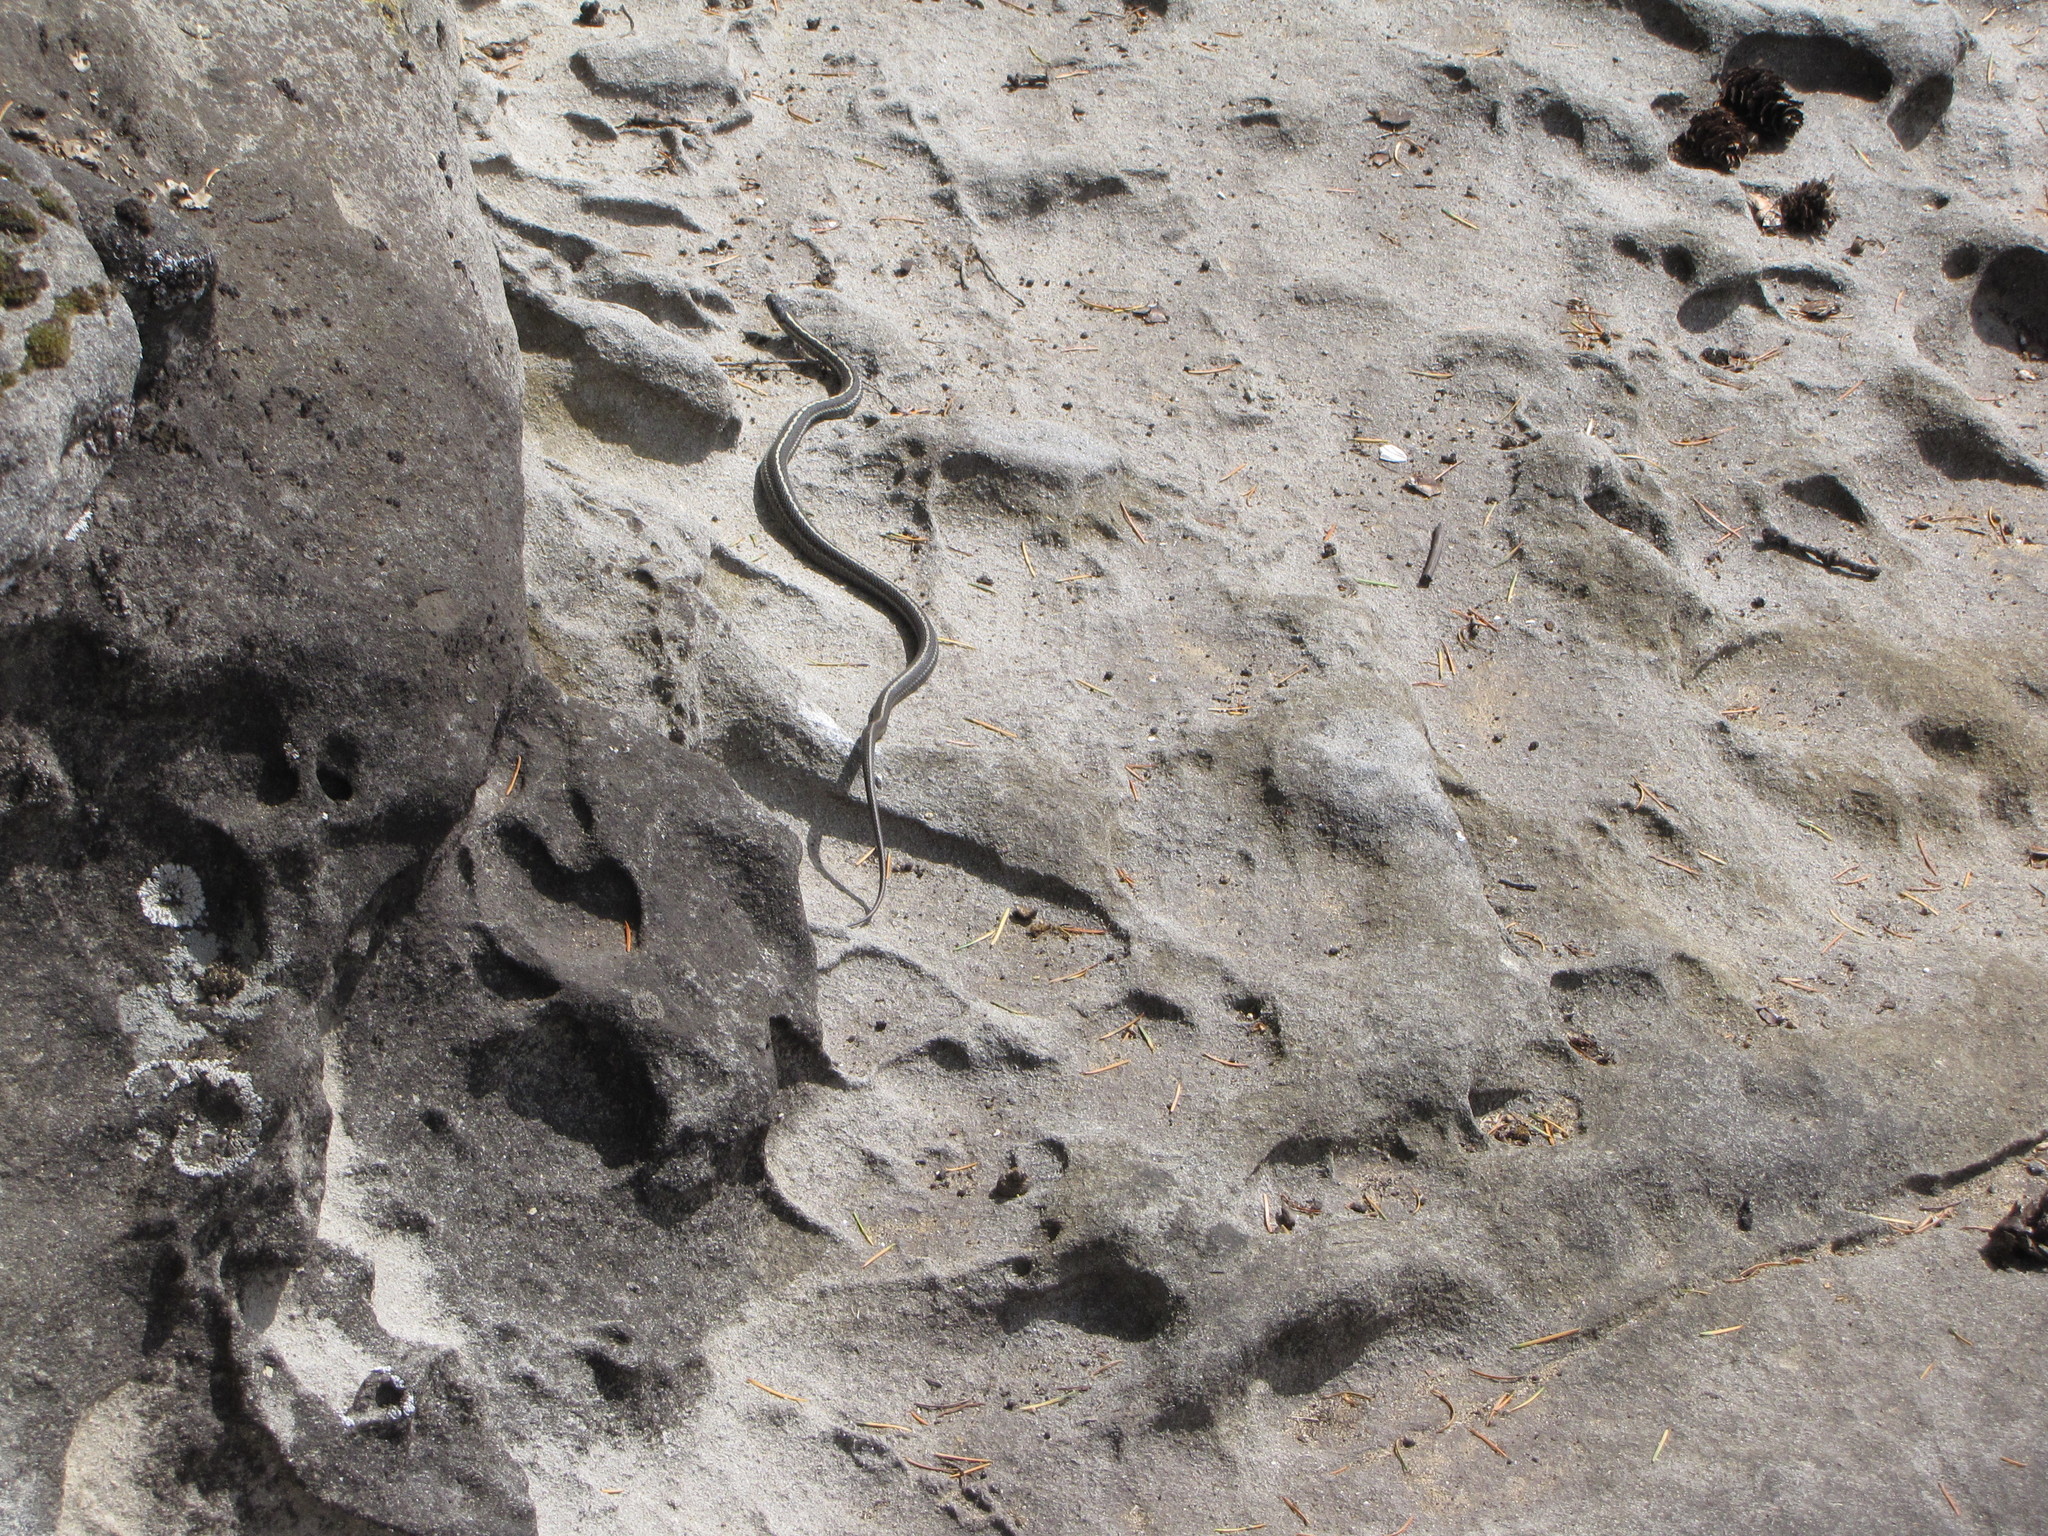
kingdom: Animalia
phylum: Chordata
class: Squamata
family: Colubridae
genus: Thamnophis
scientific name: Thamnophis ordinoides
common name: Northwestern garter snake
